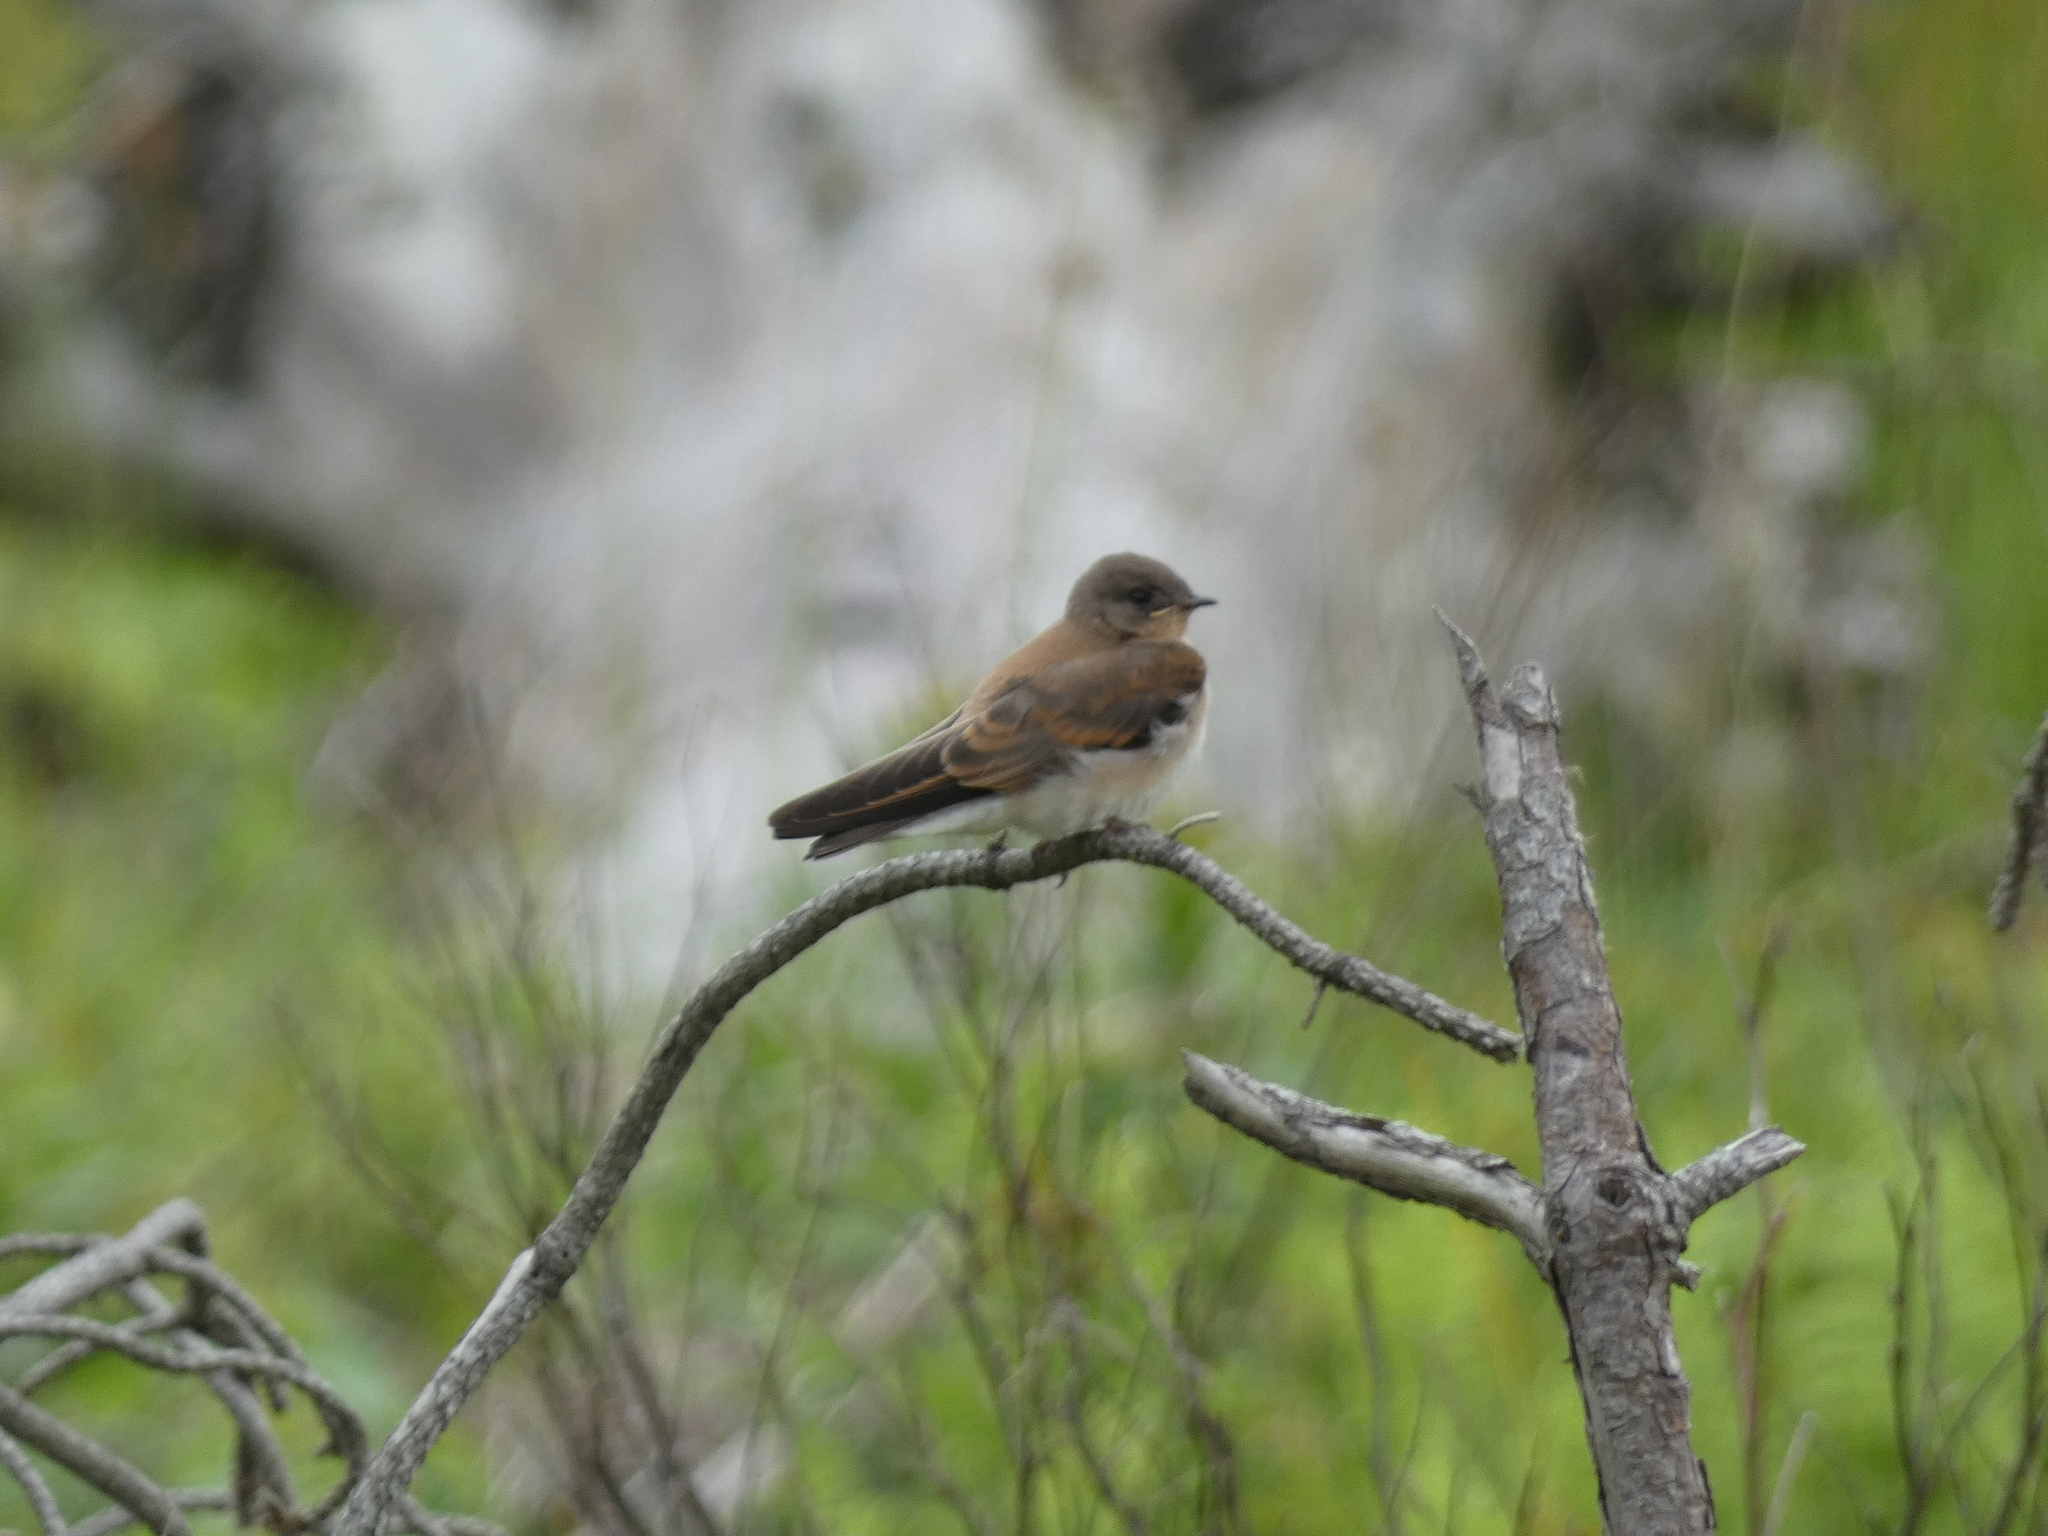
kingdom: Animalia
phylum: Chordata
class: Aves
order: Passeriformes
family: Hirundinidae
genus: Stelgidopteryx
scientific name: Stelgidopteryx serripennis
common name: Northern rough-winged swallow
